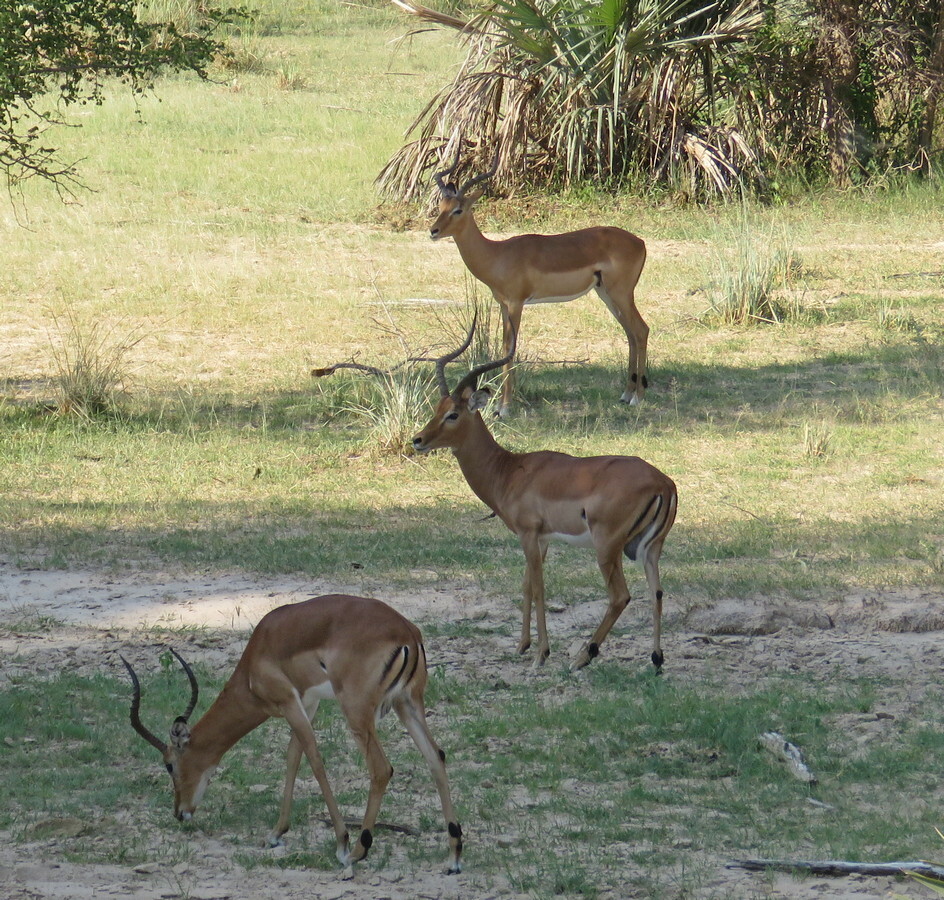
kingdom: Animalia
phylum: Chordata
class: Mammalia
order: Artiodactyla
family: Bovidae
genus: Aepyceros
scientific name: Aepyceros melampus
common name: Impala
